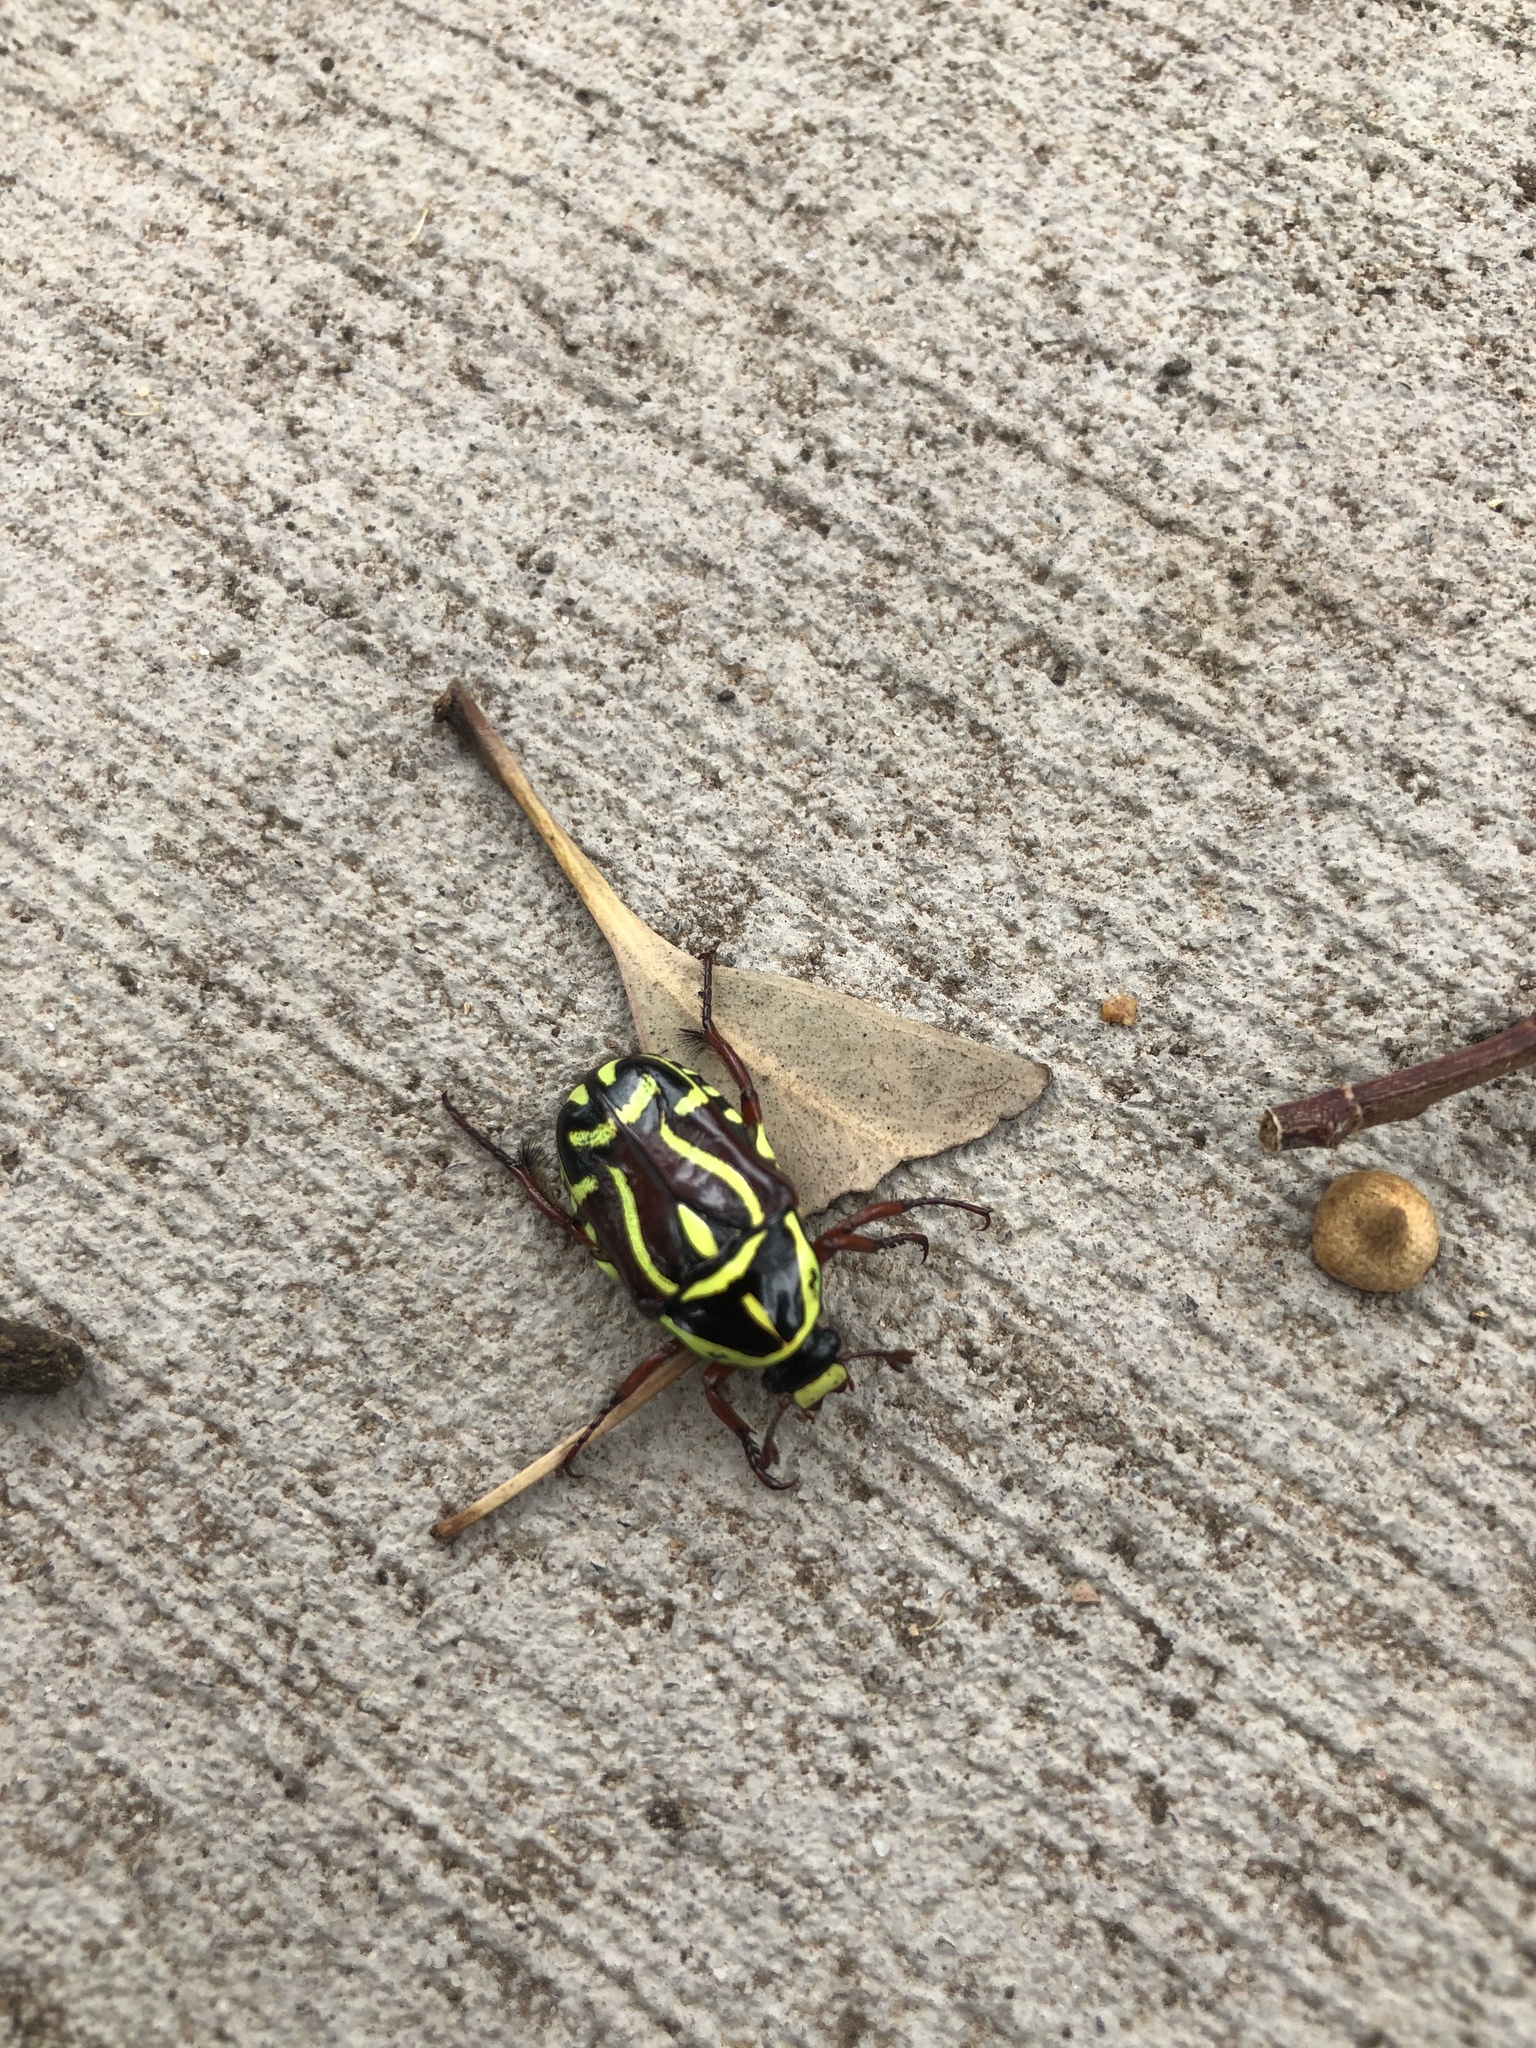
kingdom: Animalia
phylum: Arthropoda
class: Insecta
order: Coleoptera
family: Scarabaeidae
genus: Eupoecila
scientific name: Eupoecila australasiae
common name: Fiddler beetle
